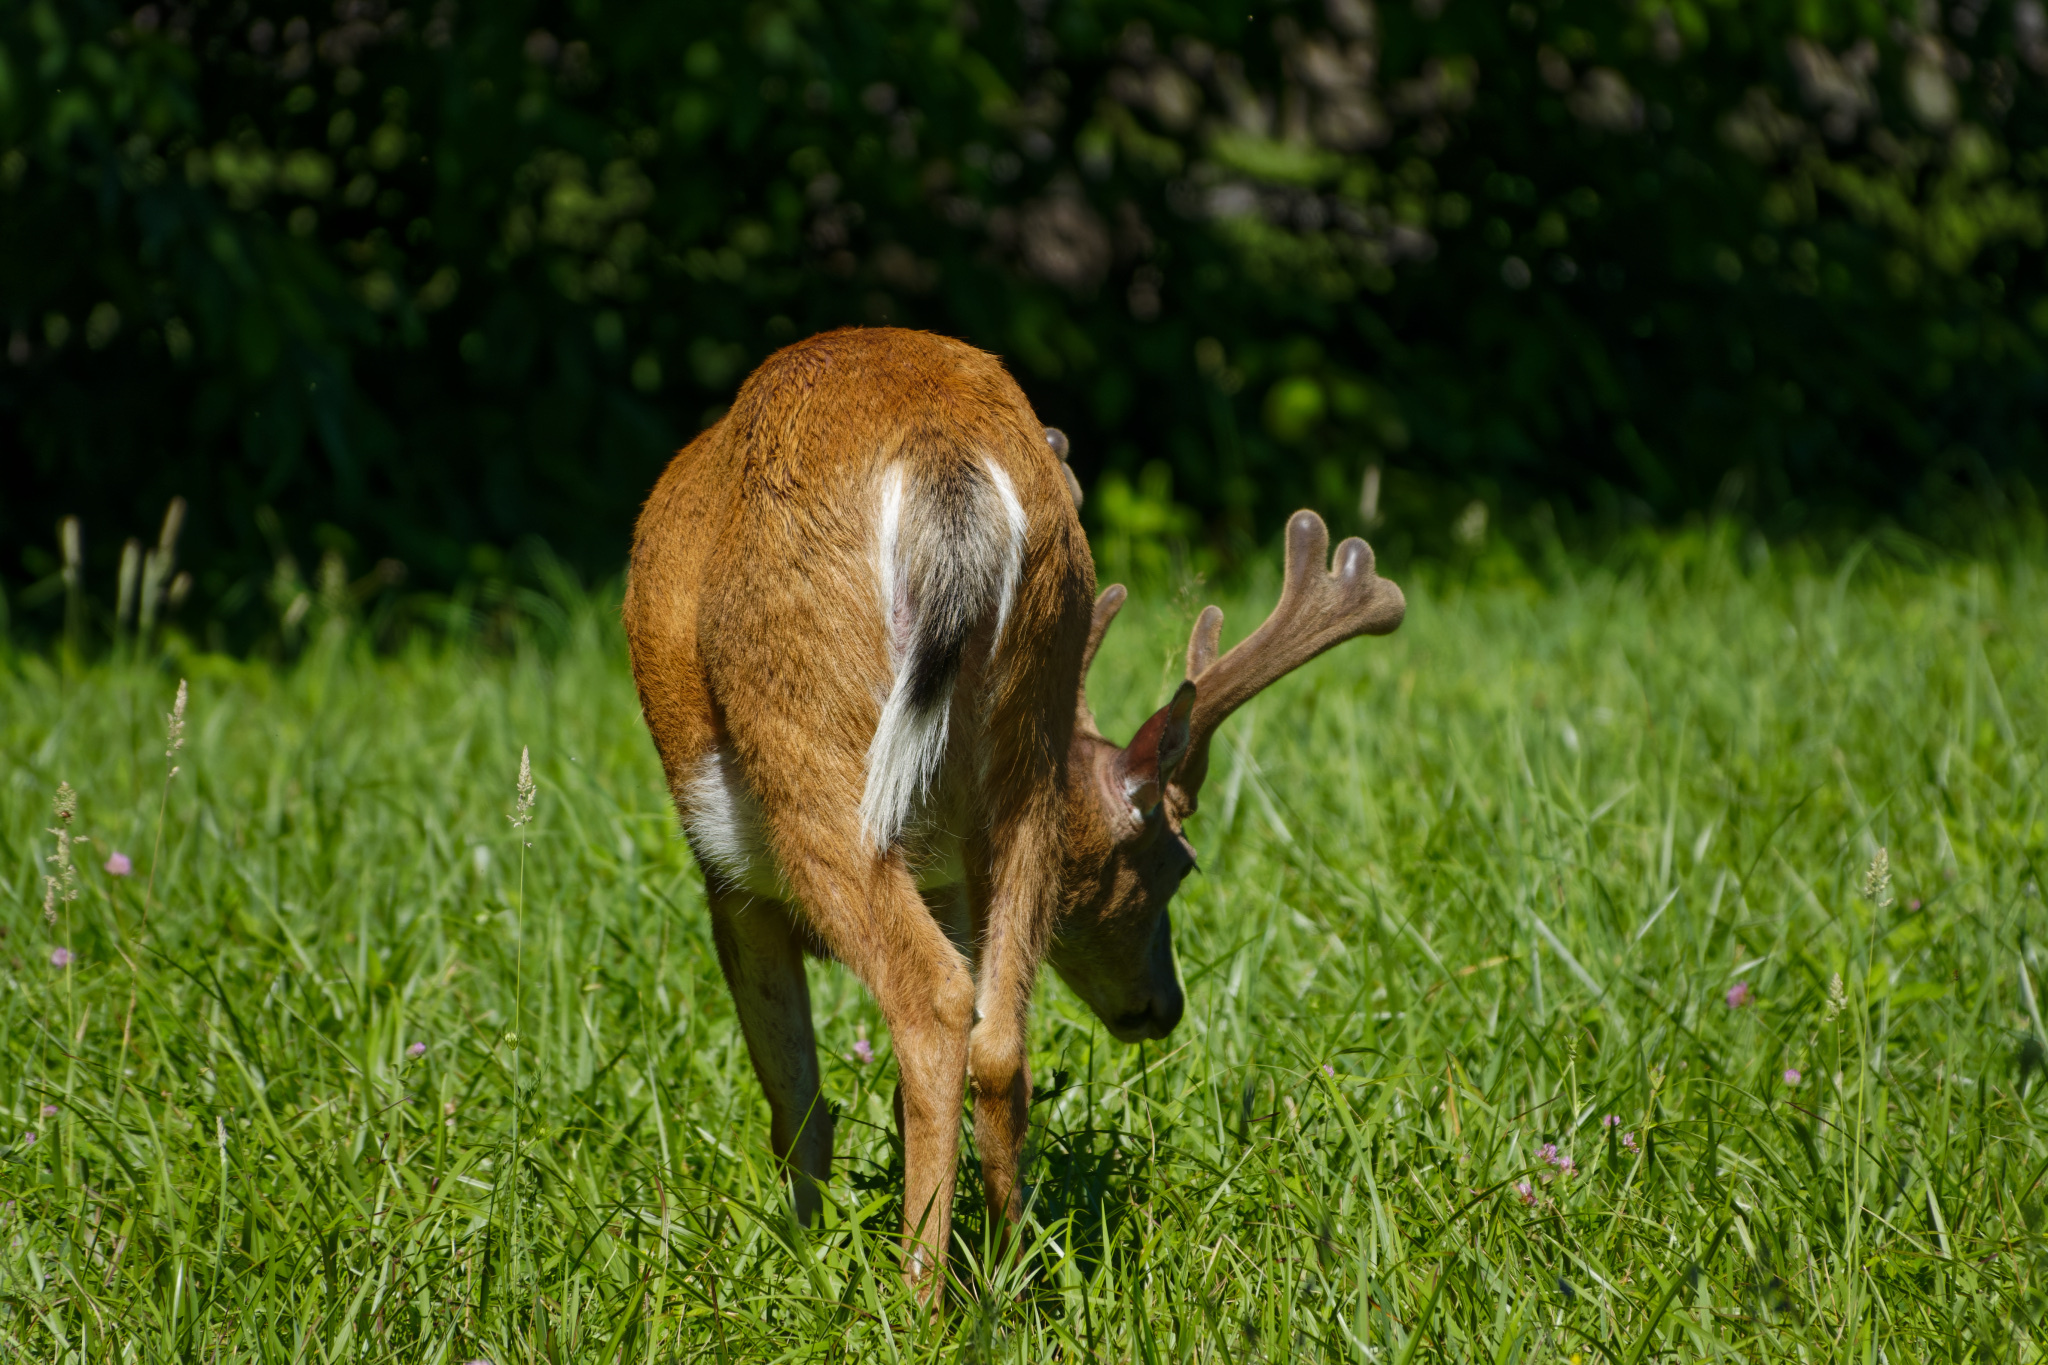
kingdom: Animalia
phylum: Chordata
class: Mammalia
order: Artiodactyla
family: Cervidae
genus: Odocoileus
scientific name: Odocoileus virginianus
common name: White-tailed deer
